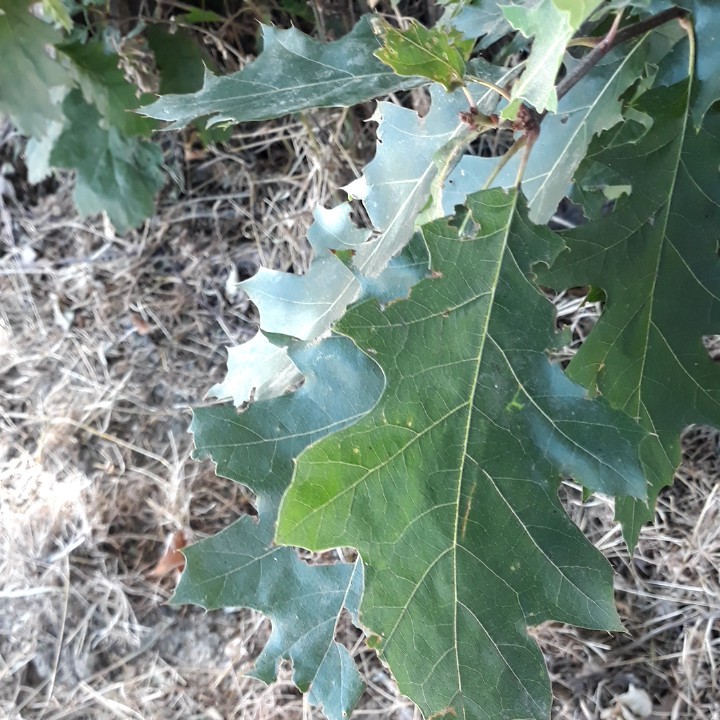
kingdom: Plantae
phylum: Tracheophyta
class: Magnoliopsida
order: Fagales
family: Fagaceae
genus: Quercus
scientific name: Quercus rubra
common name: Red oak
